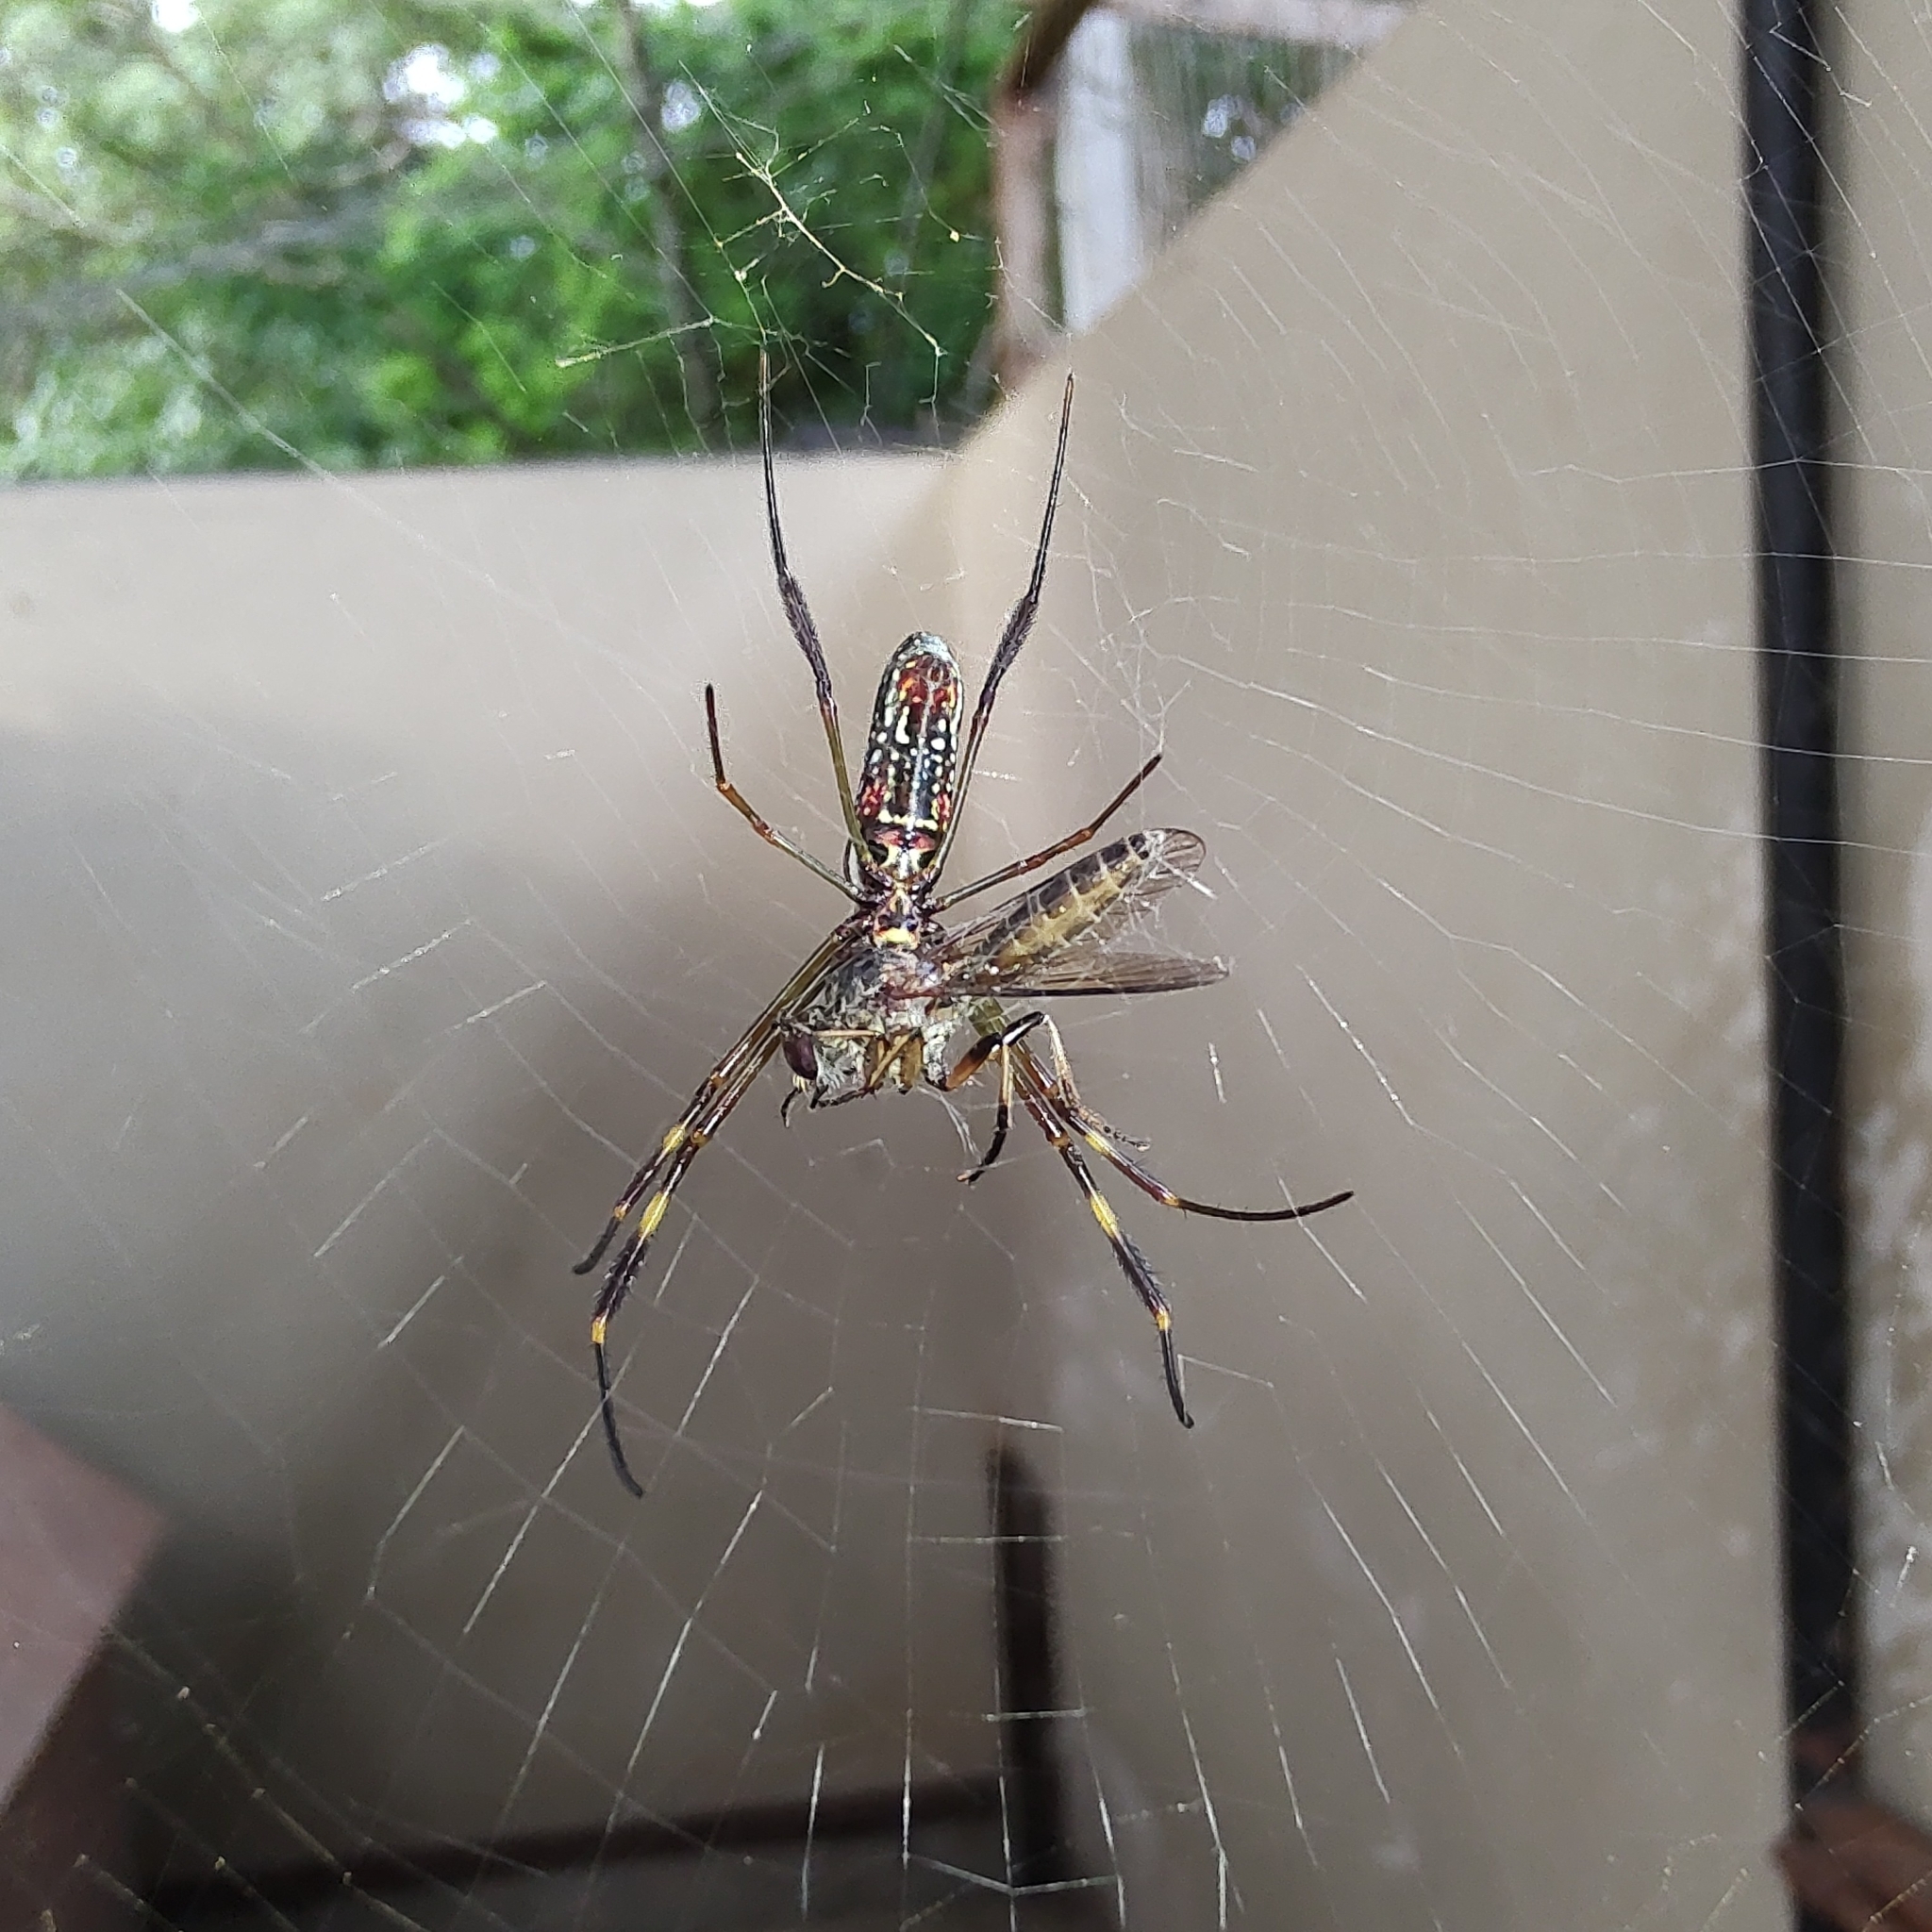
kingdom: Animalia
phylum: Arthropoda
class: Arachnida
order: Araneae
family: Araneidae
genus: Trichonephila
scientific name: Trichonephila clavipes
